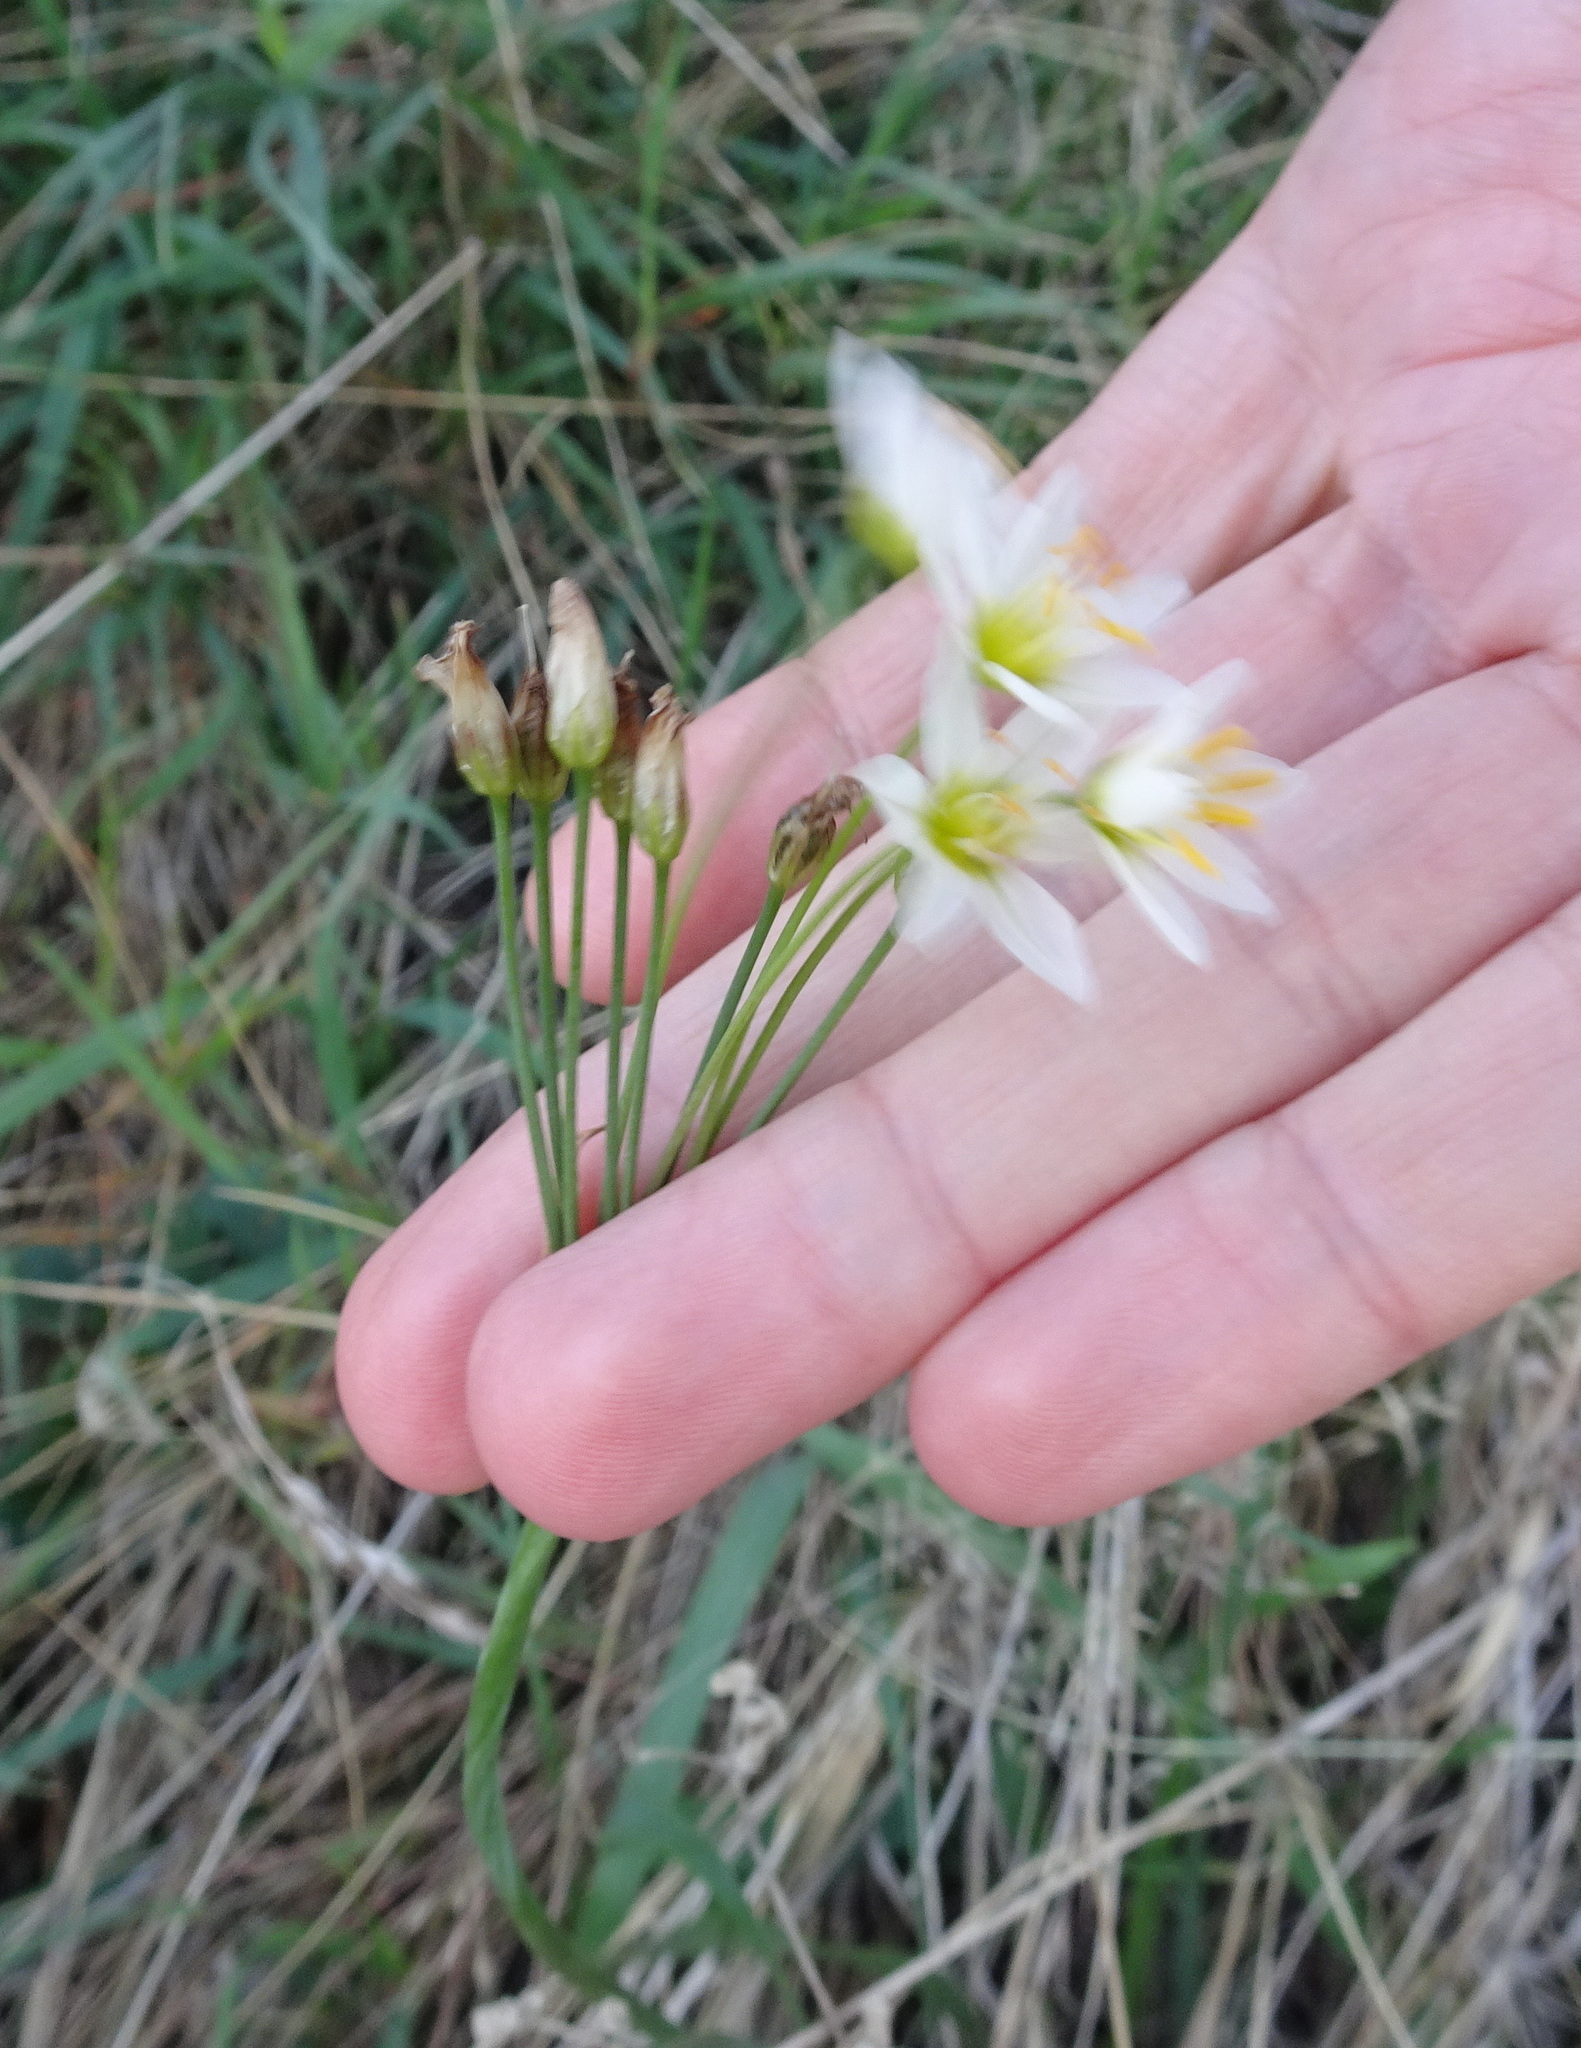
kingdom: Plantae
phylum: Tracheophyta
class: Liliopsida
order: Asparagales
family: Amaryllidaceae
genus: Nothoscordum
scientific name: Nothoscordum bivalve
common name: Crow-poison
